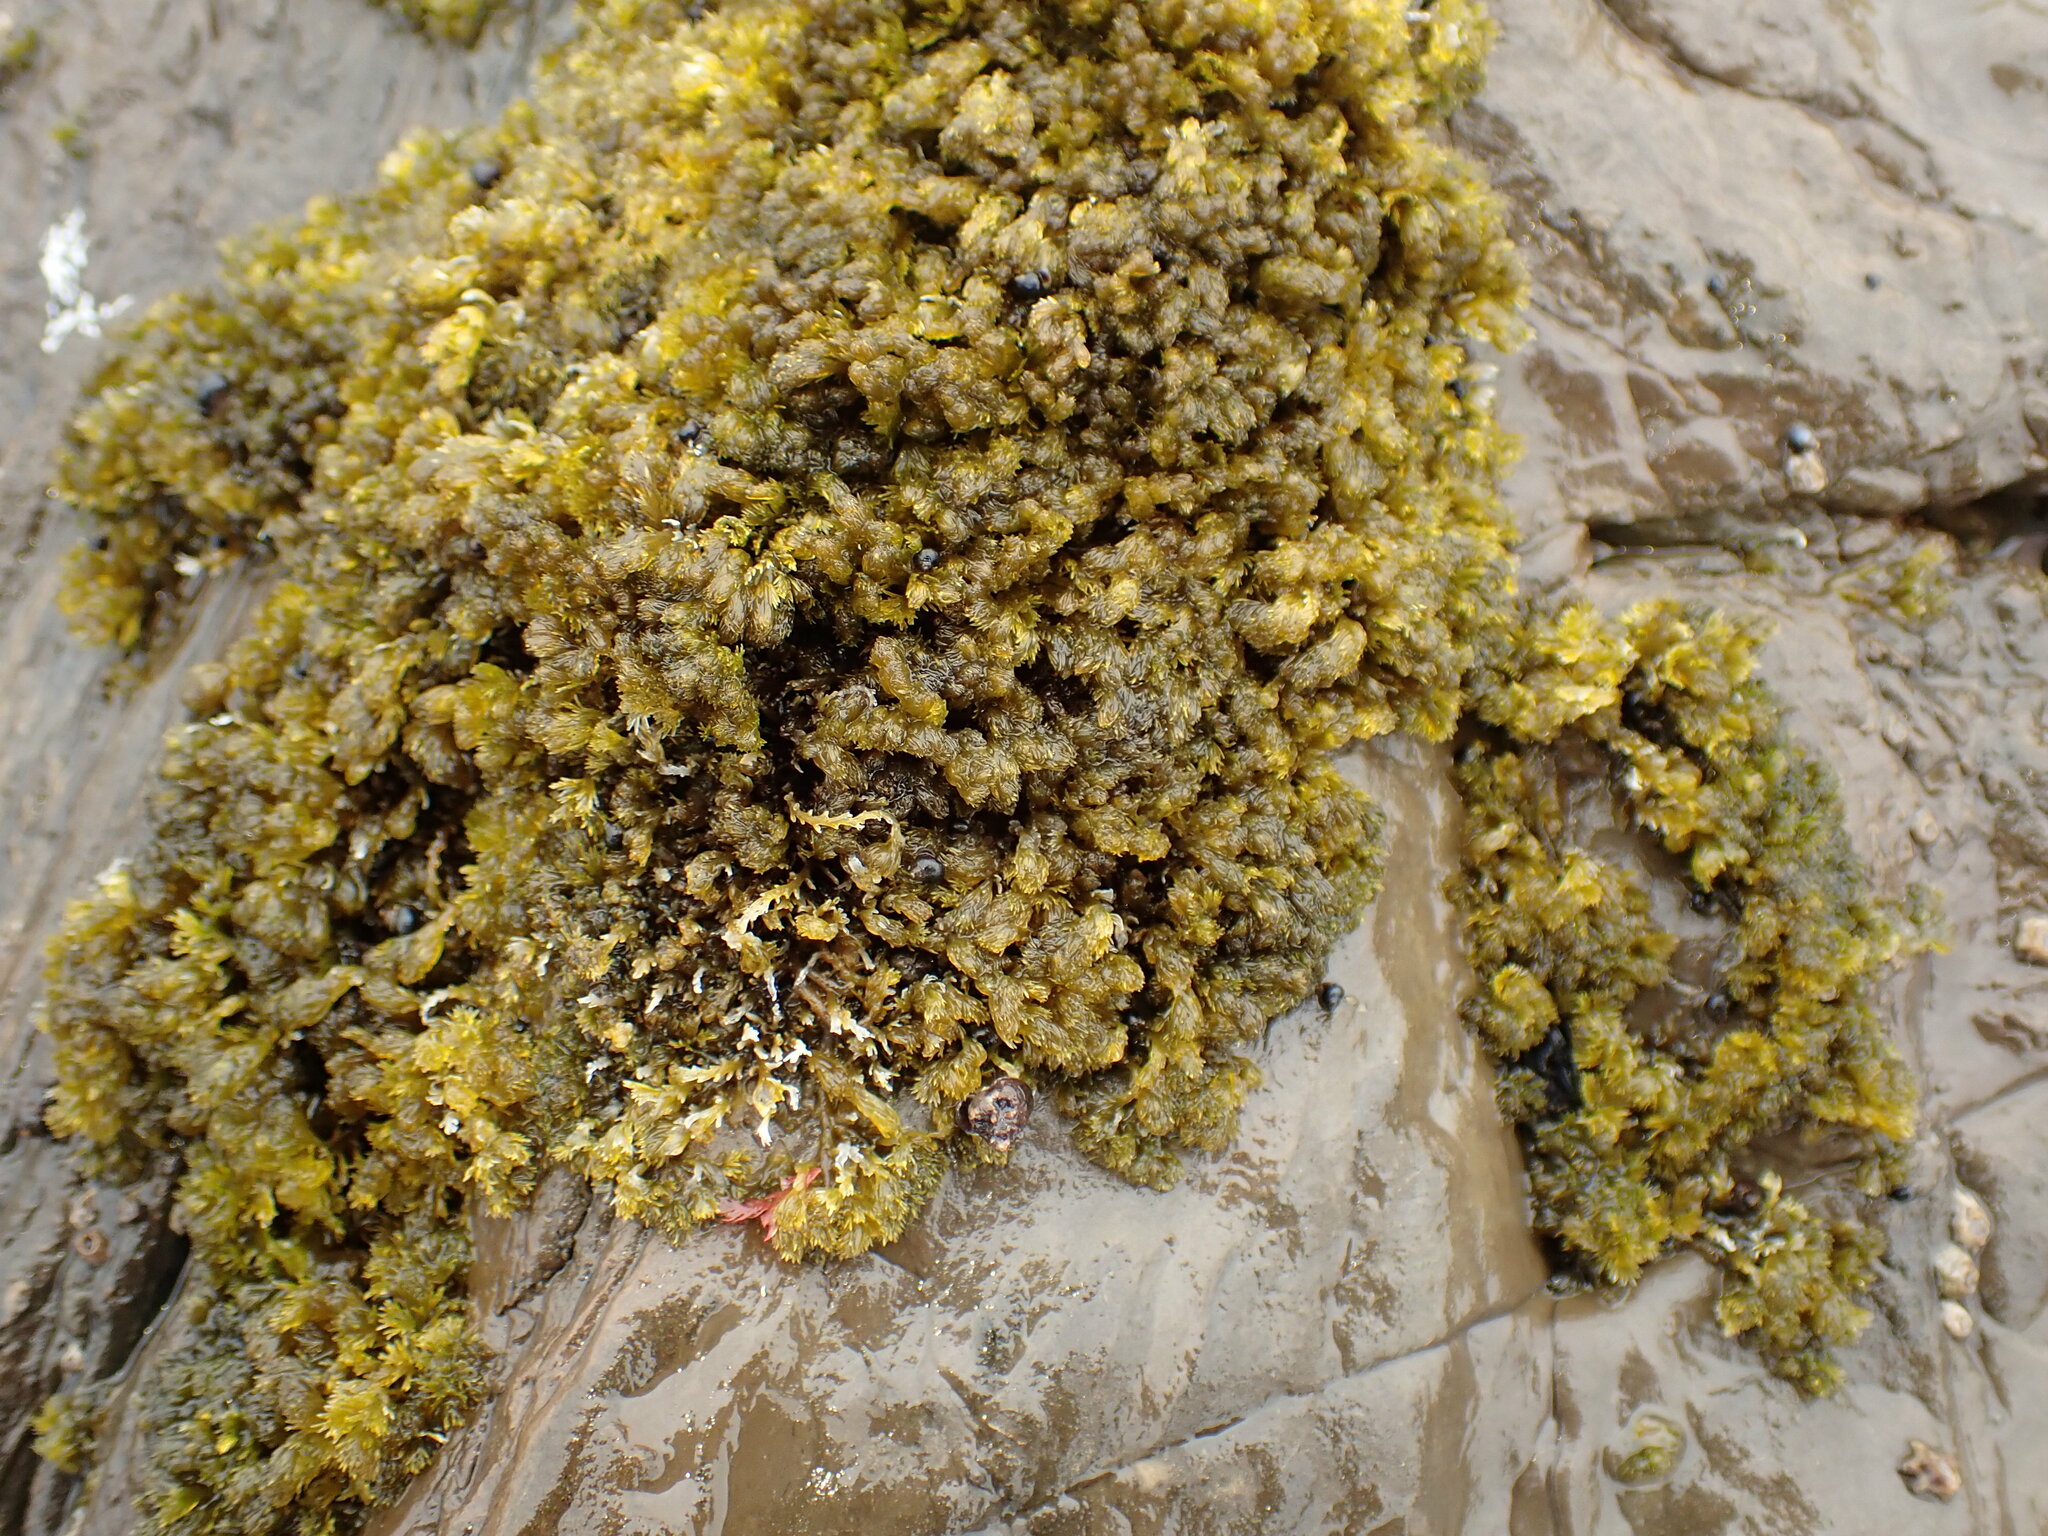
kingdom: Plantae
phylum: Rhodophyta
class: Florideophyceae
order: Ceramiales
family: Rhodomelaceae
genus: Bostrychia
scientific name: Bostrychia arbuscula
